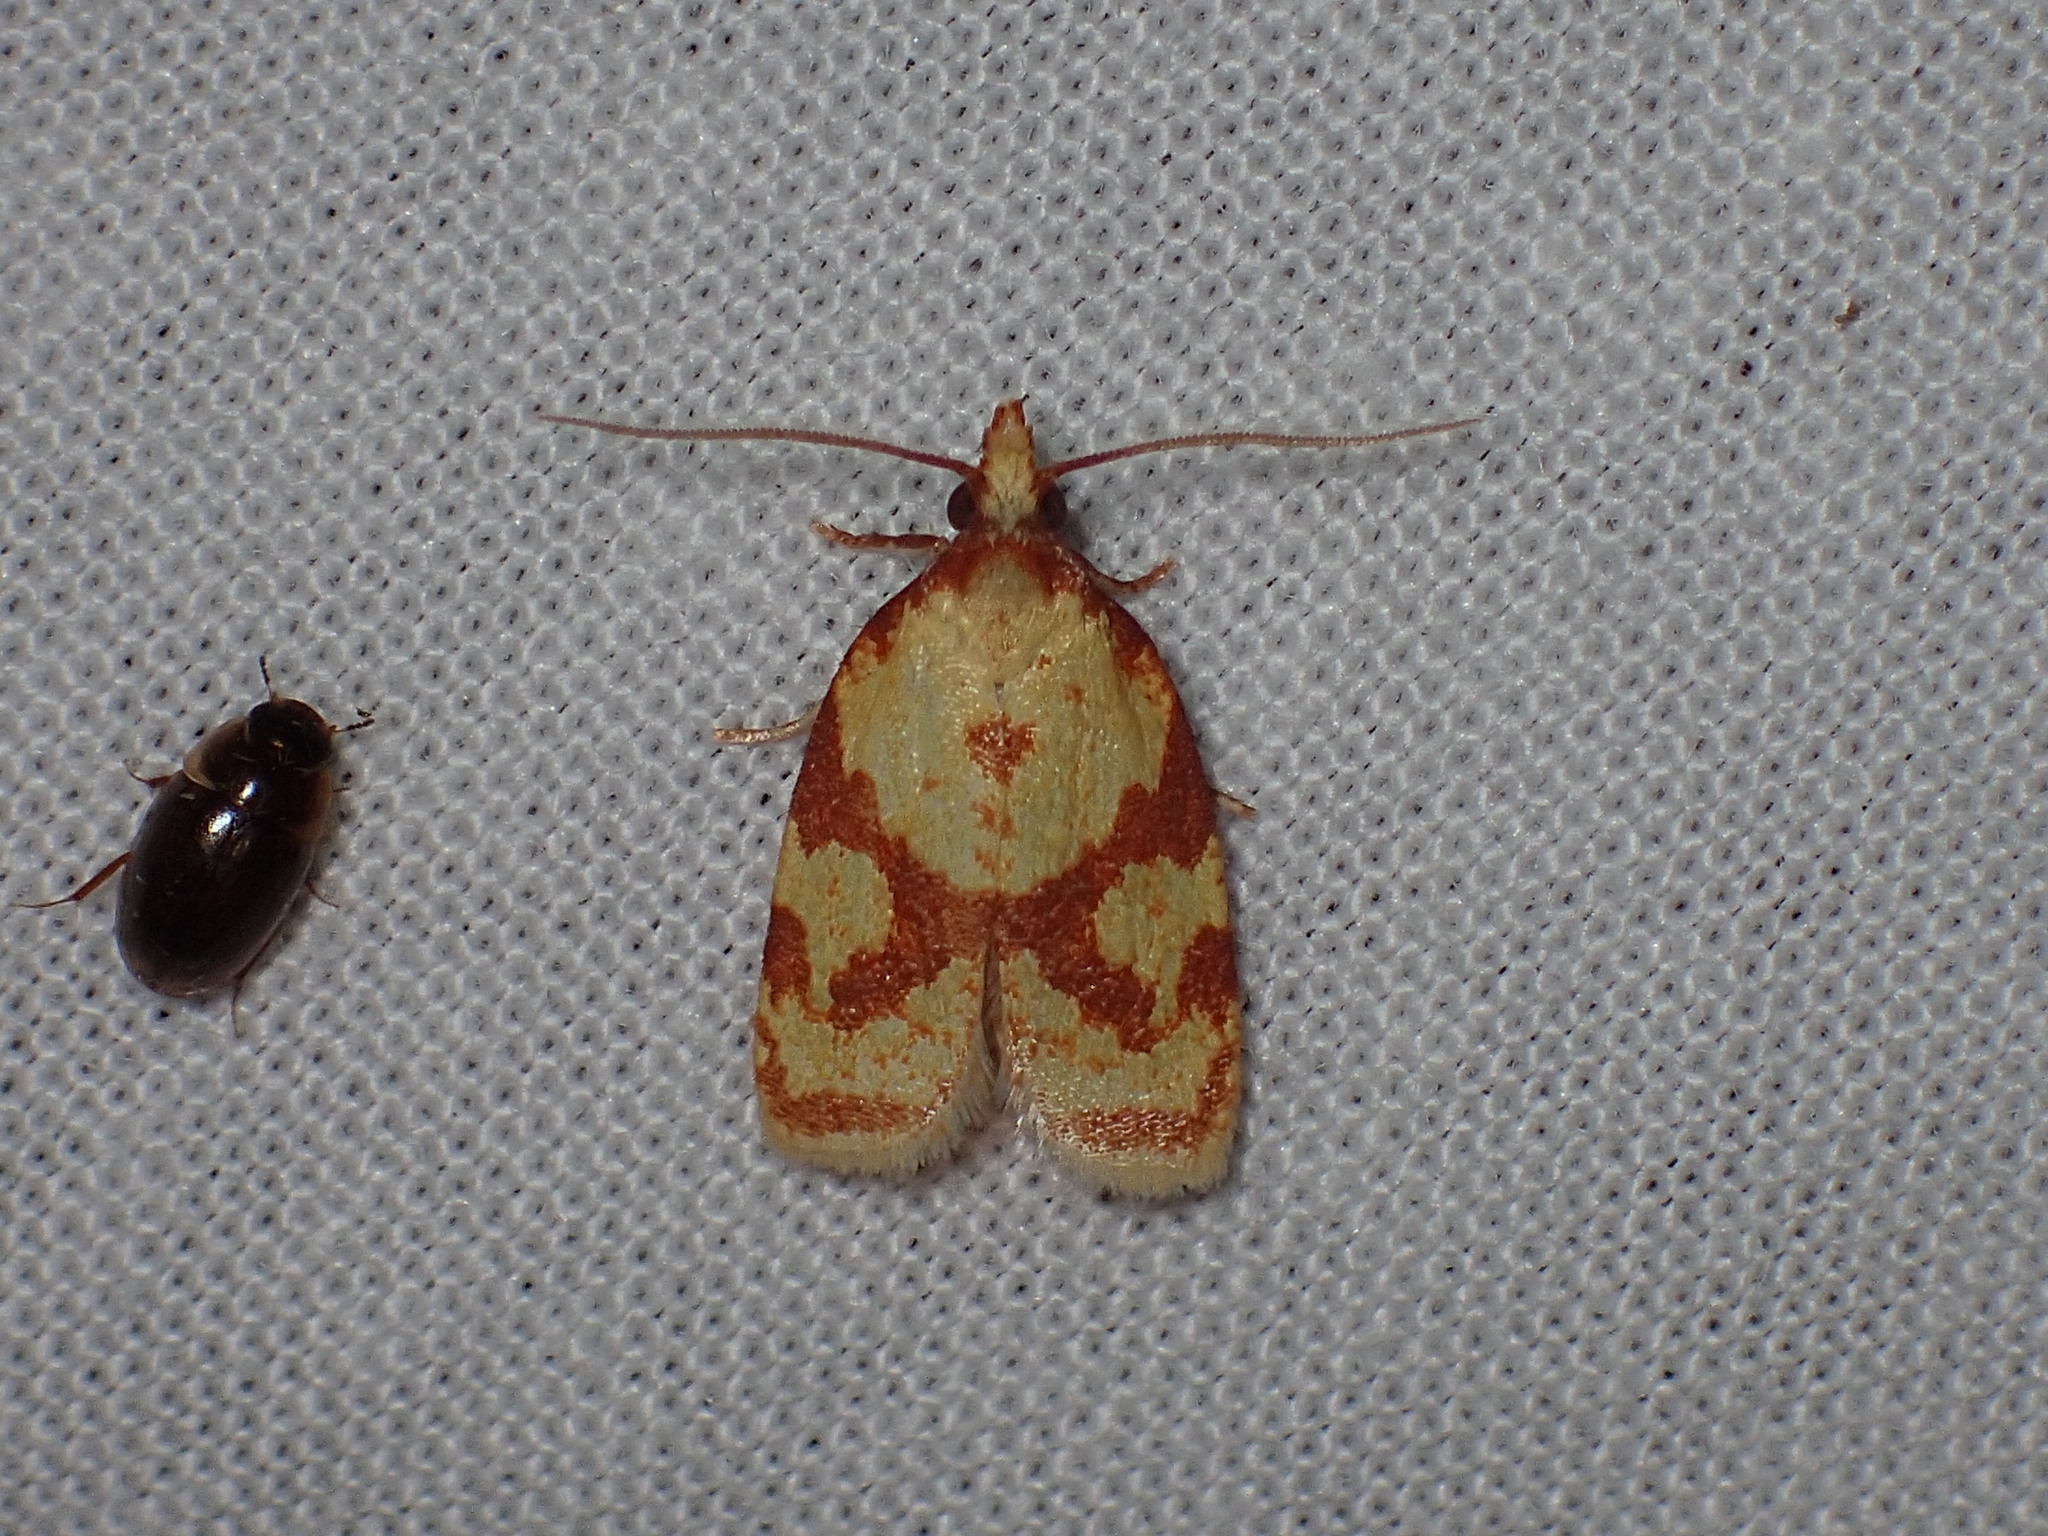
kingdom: Animalia
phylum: Arthropoda
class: Insecta
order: Lepidoptera
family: Tortricidae
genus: Sparganothis
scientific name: Sparganothis sulfureana
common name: Sparganothis fruitworm moth
